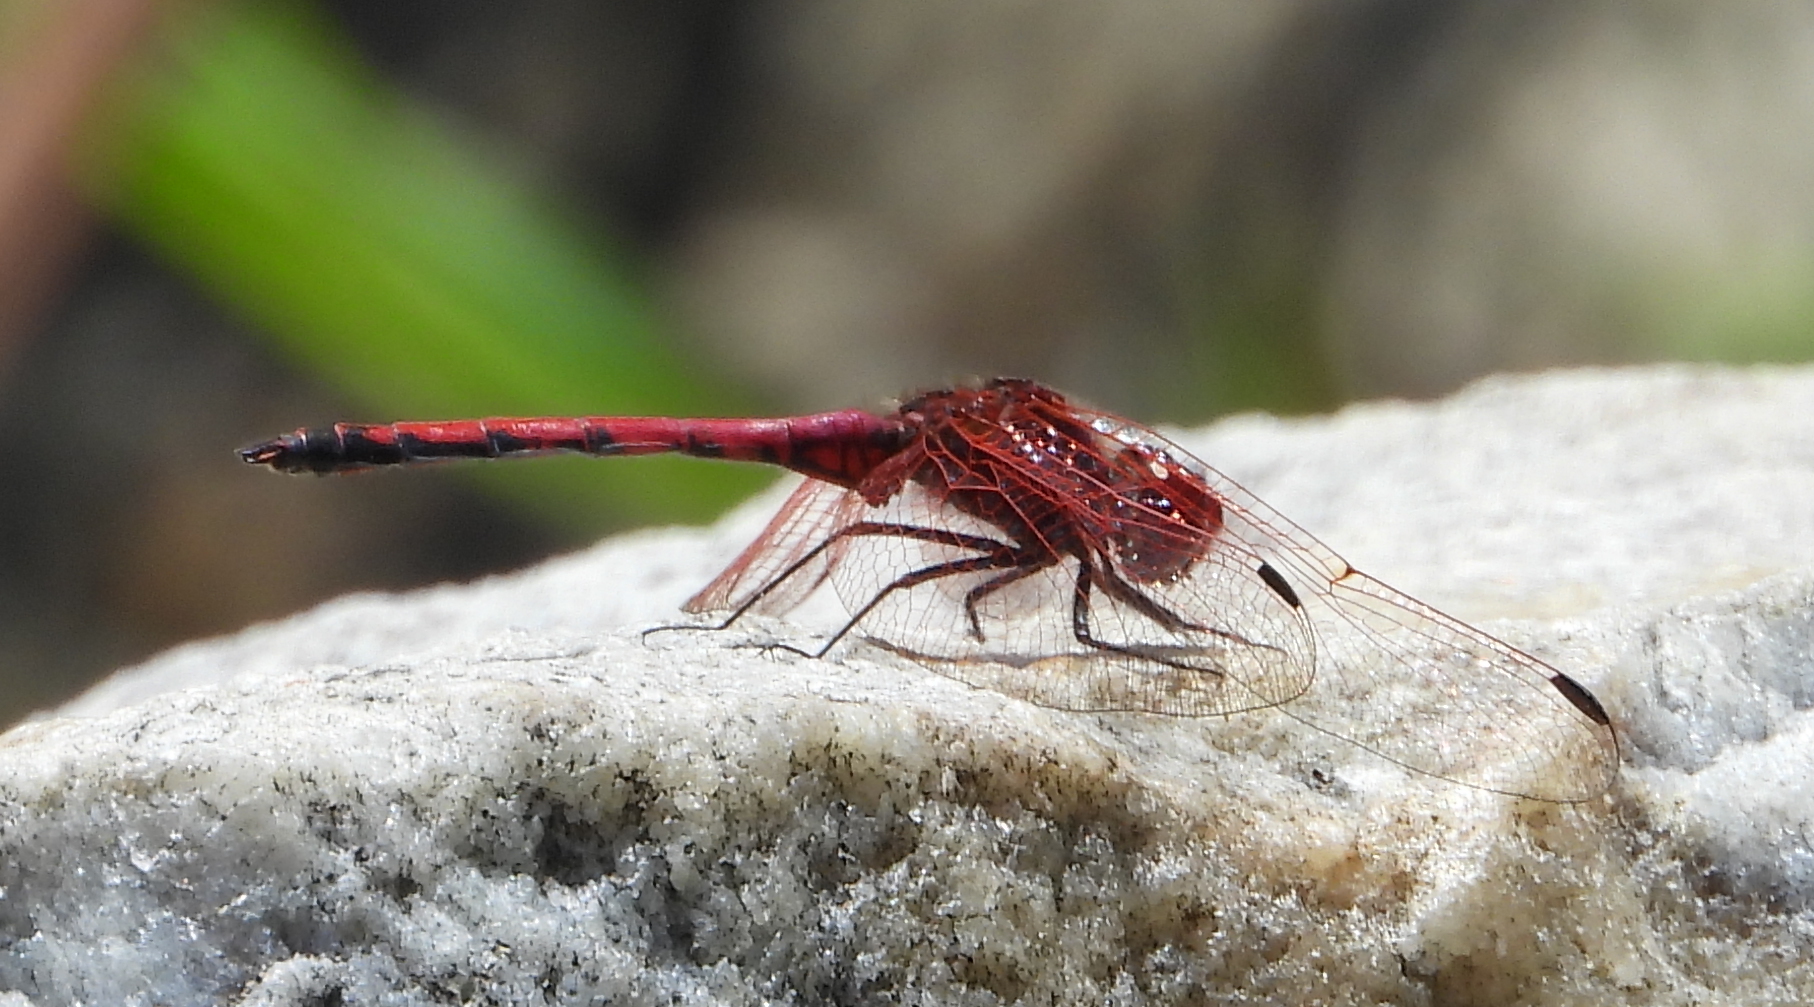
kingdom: Animalia
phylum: Arthropoda
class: Insecta
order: Odonata
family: Libellulidae
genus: Trithemis
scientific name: Trithemis arteriosa
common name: Red-veined dropwing
